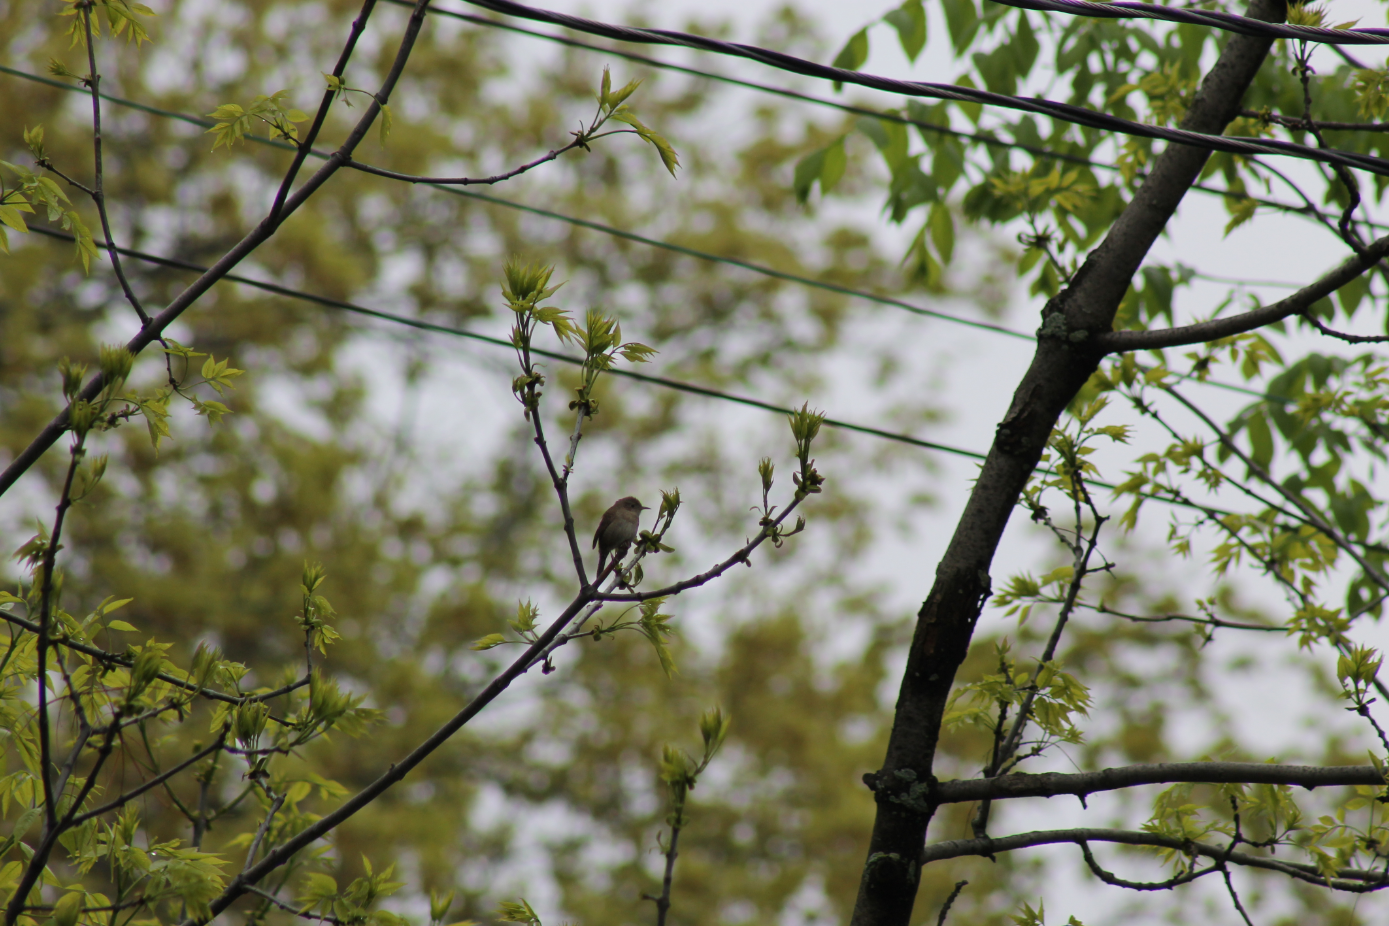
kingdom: Animalia
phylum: Chordata
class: Aves
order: Passeriformes
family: Troglodytidae
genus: Troglodytes
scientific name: Troglodytes aedon
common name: House wren
